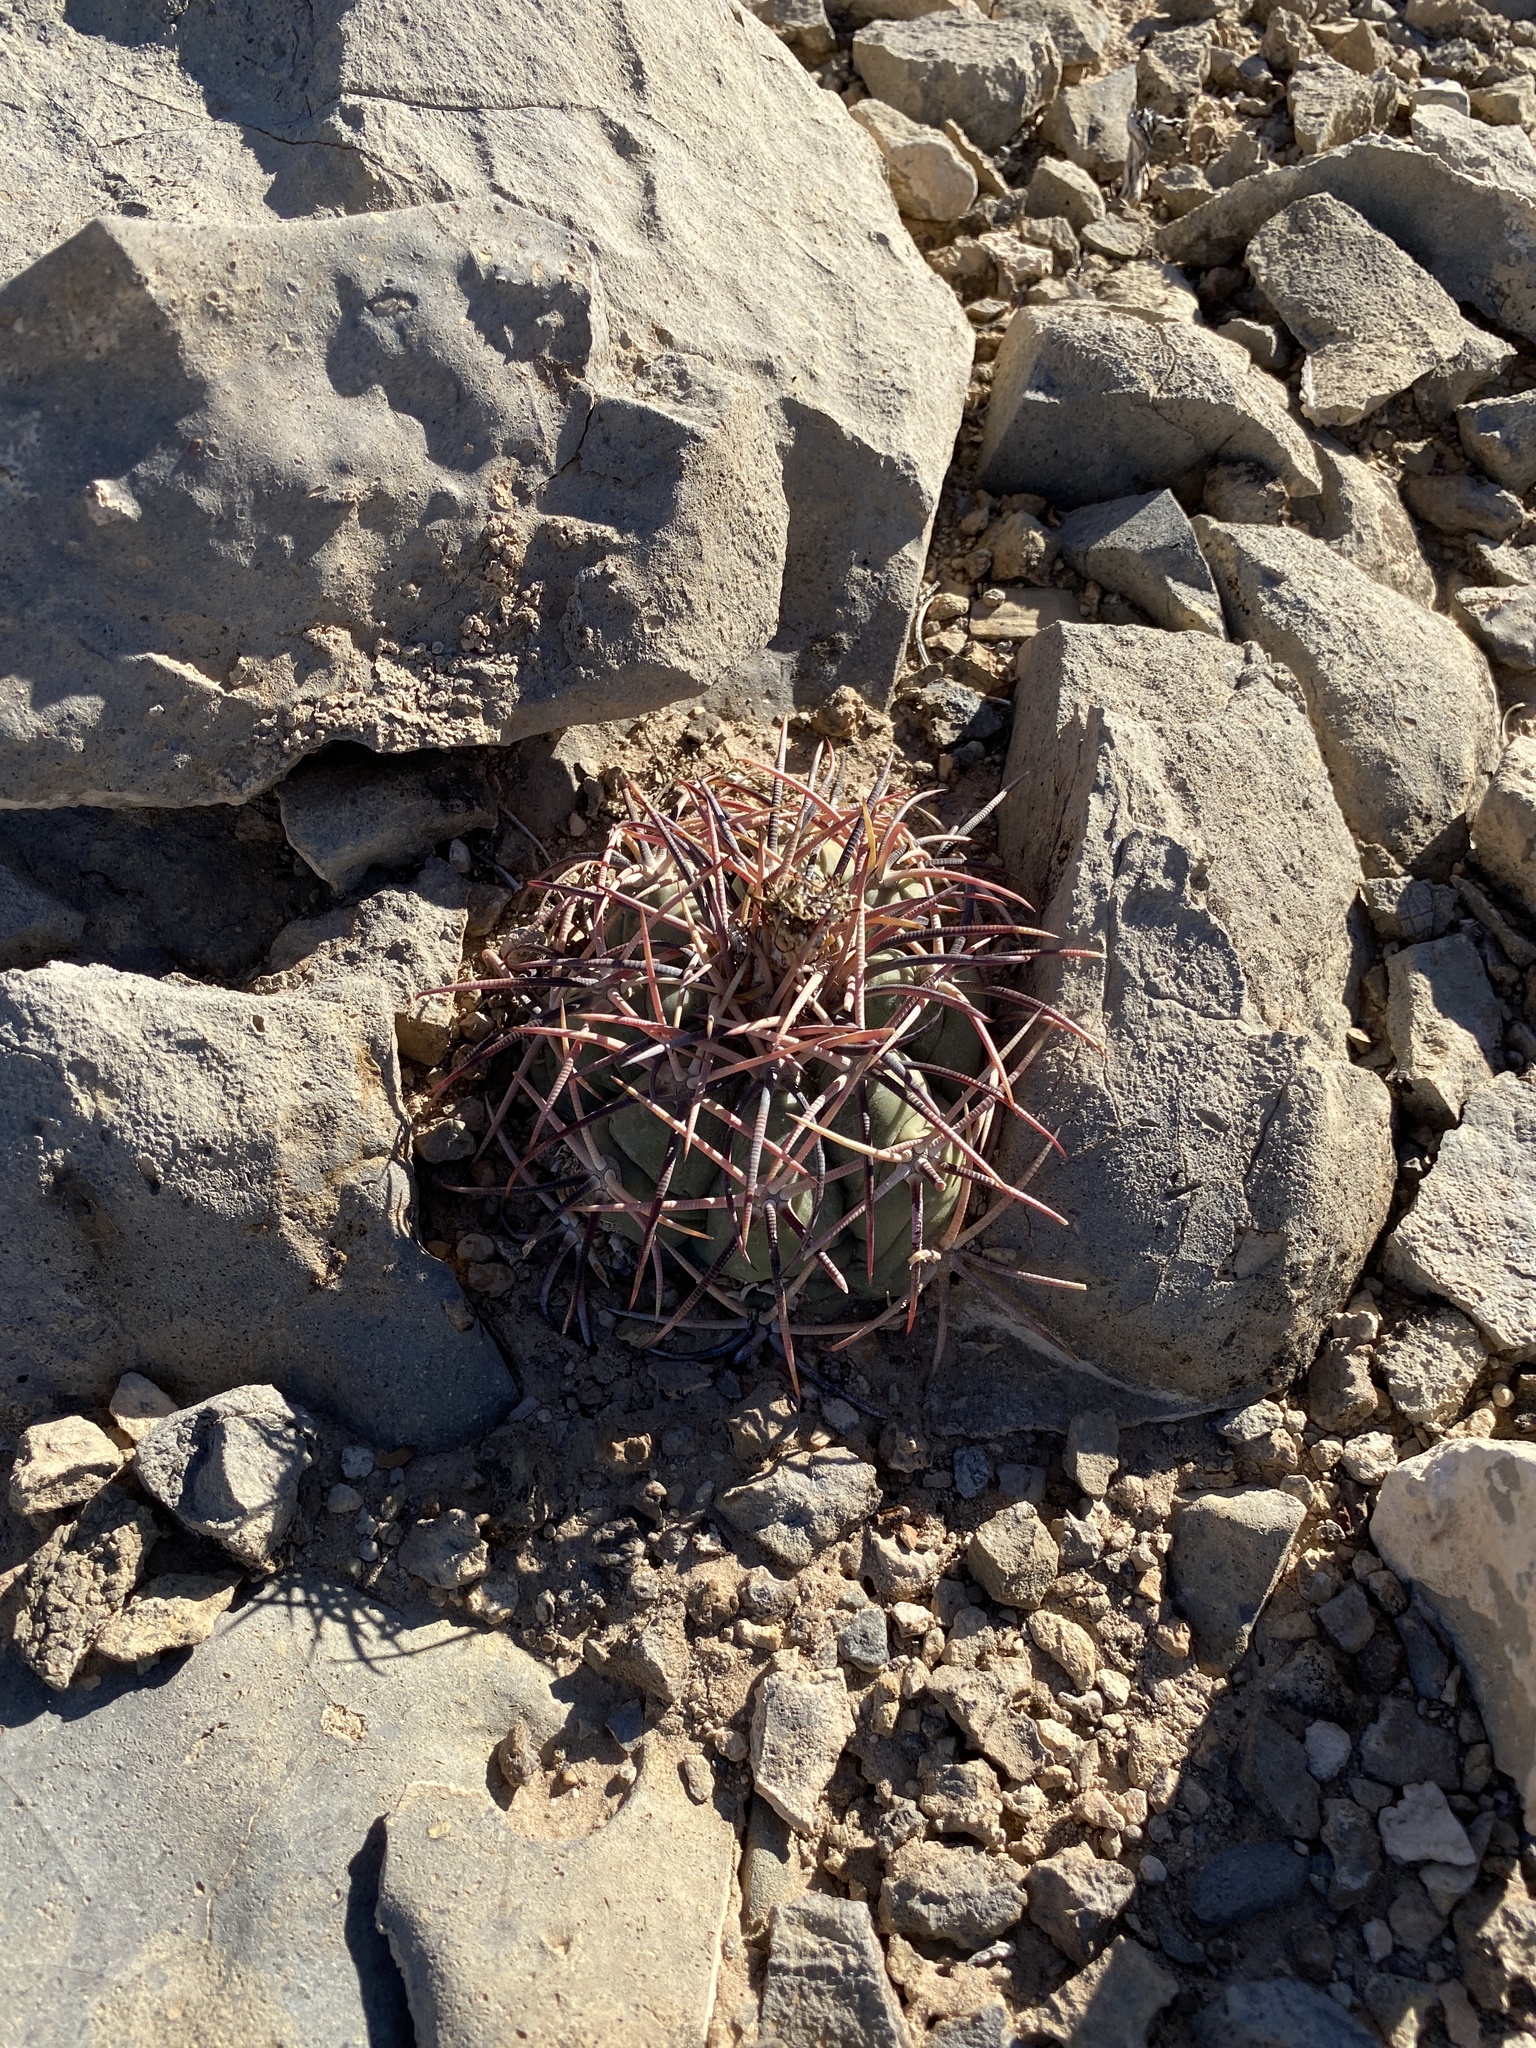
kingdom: Plantae
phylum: Tracheophyta
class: Magnoliopsida
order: Caryophyllales
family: Cactaceae
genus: Echinocactus
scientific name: Echinocactus horizonthalonius
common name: Devilshead
